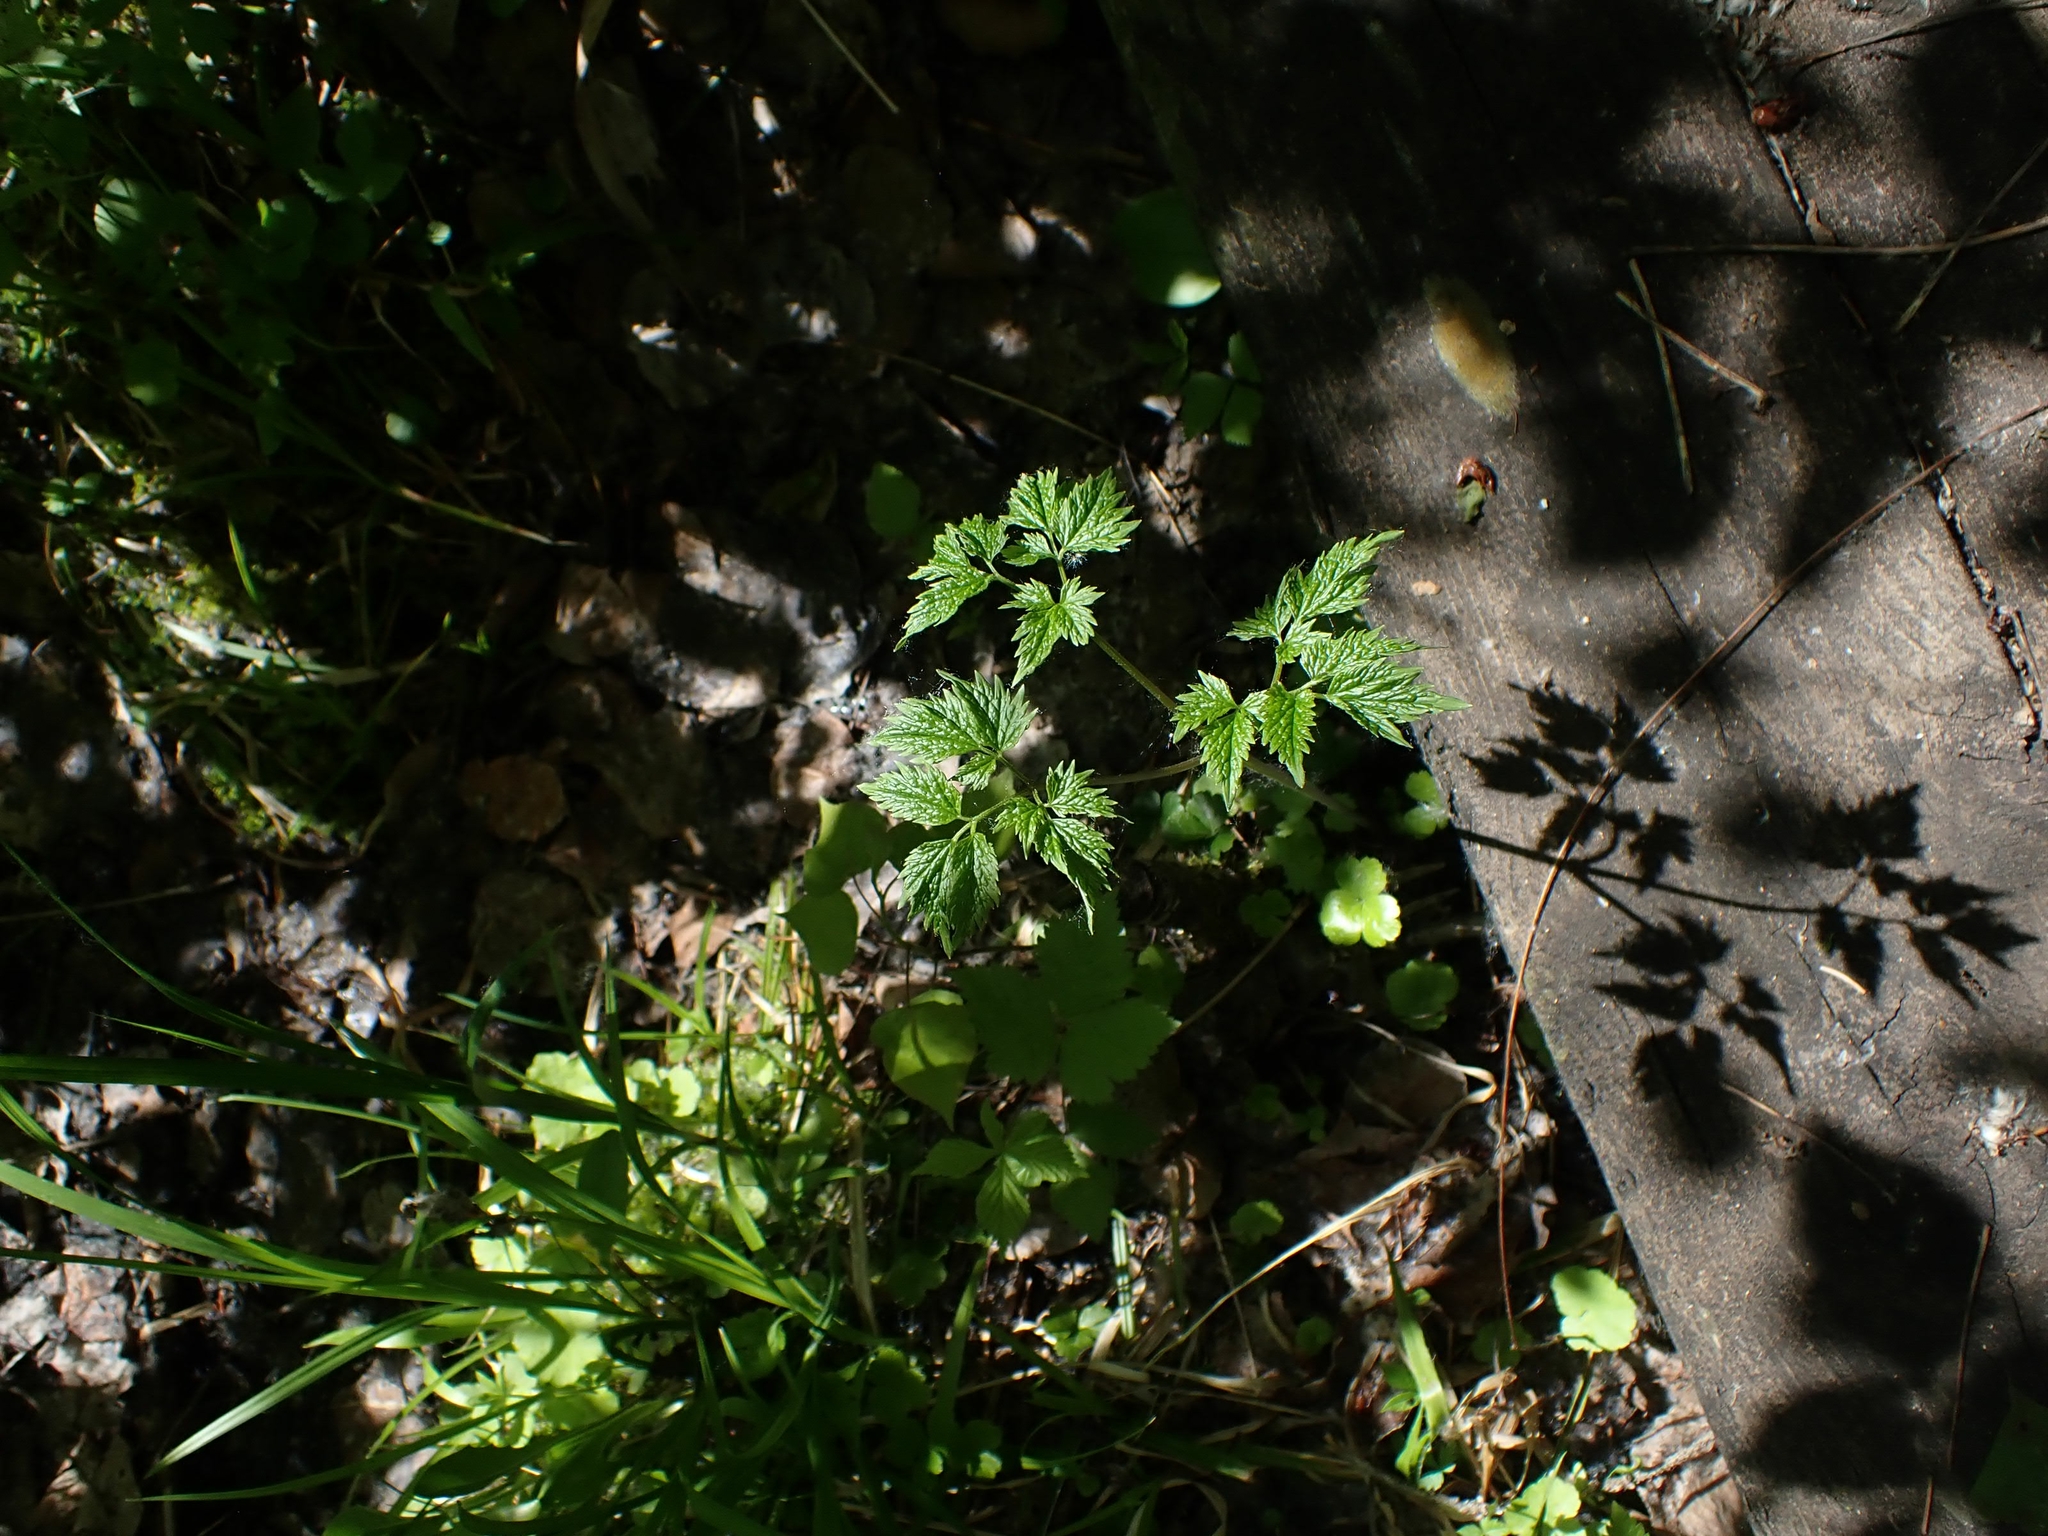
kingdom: Plantae
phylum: Tracheophyta
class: Magnoliopsida
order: Ranunculales
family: Ranunculaceae
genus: Actaea
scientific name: Actaea rubra
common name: Red baneberry
